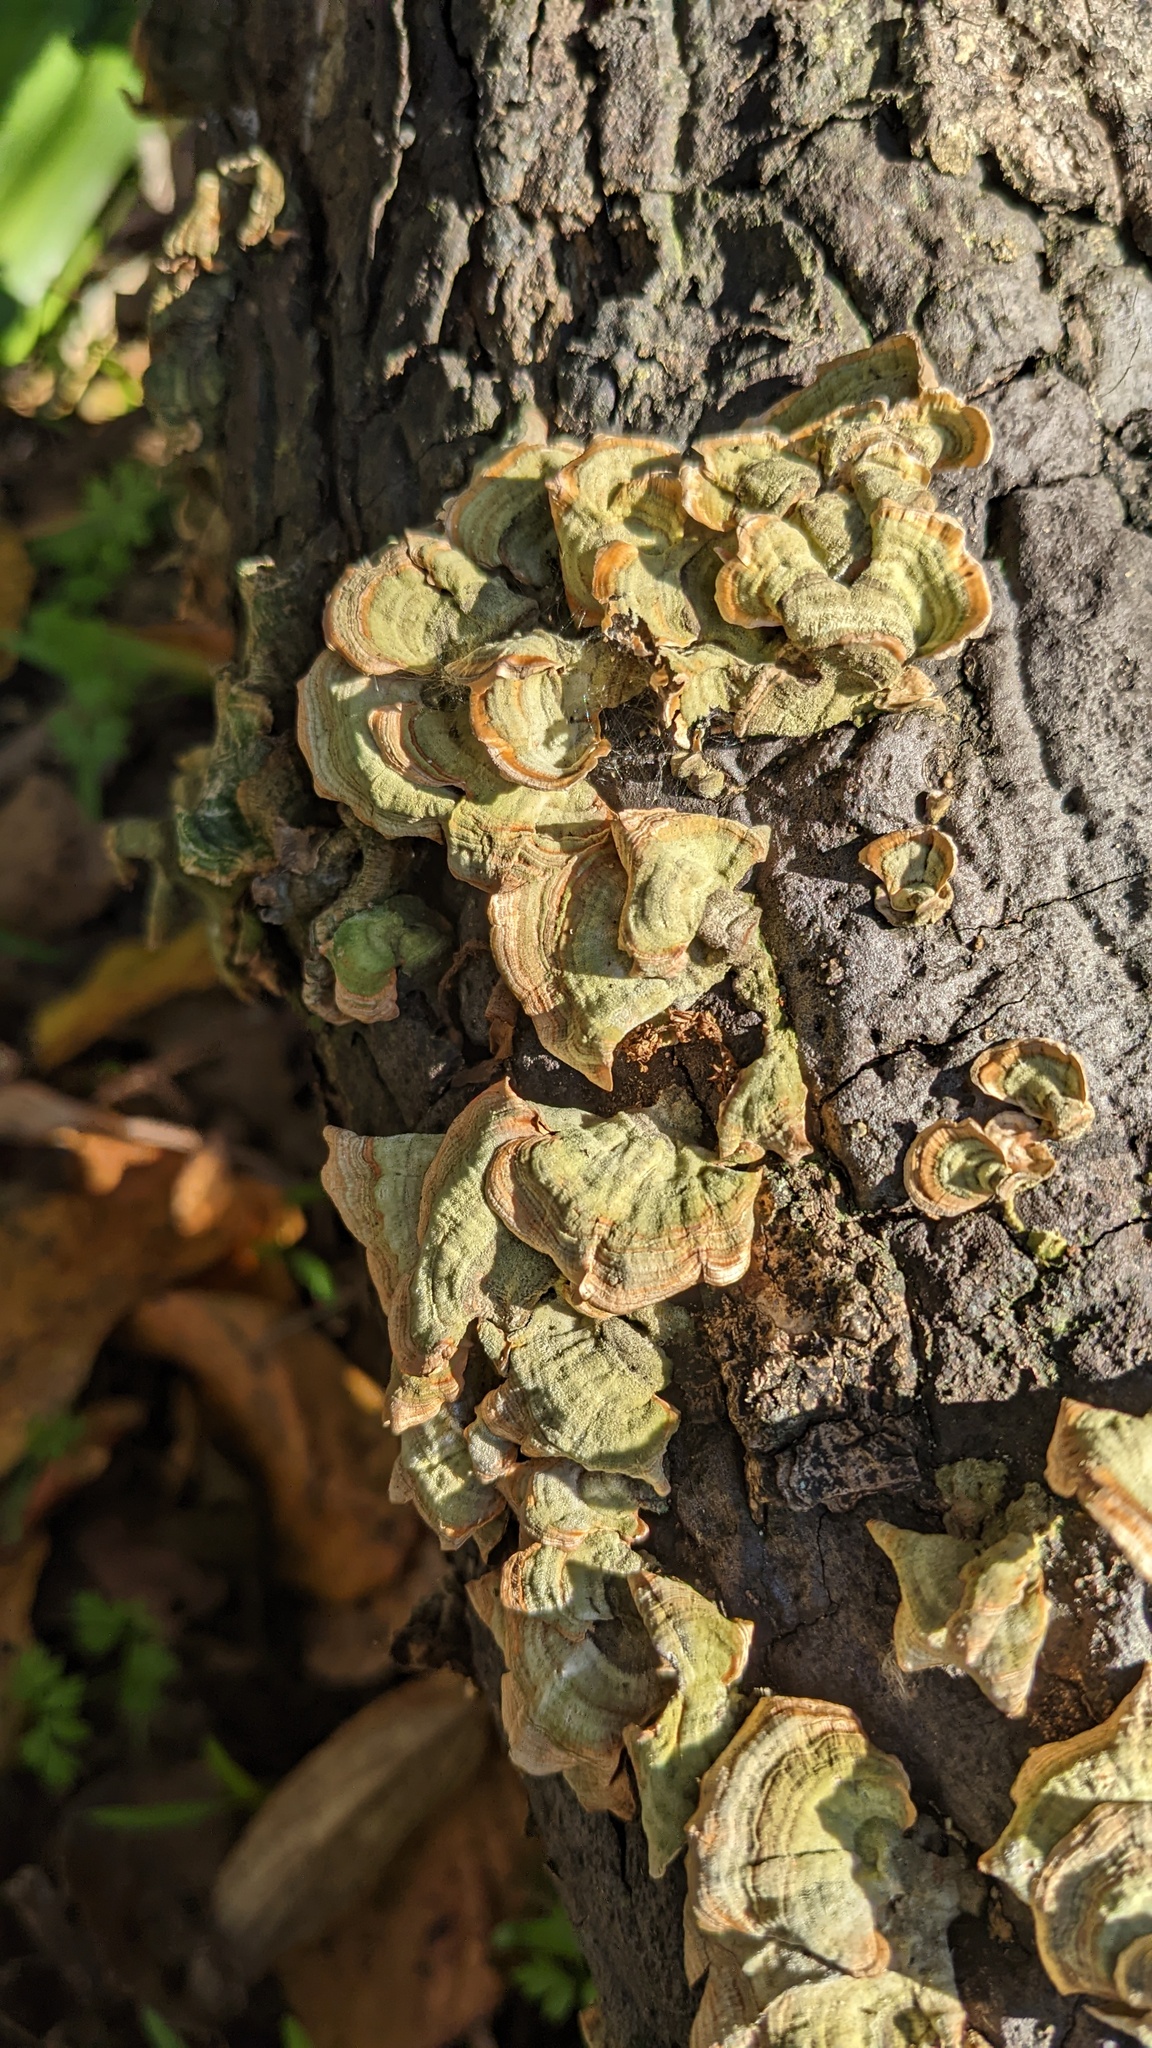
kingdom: Fungi
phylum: Basidiomycota
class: Agaricomycetes
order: Russulales
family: Stereaceae
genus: Stereum
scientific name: Stereum ostrea
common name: False turkeytail
